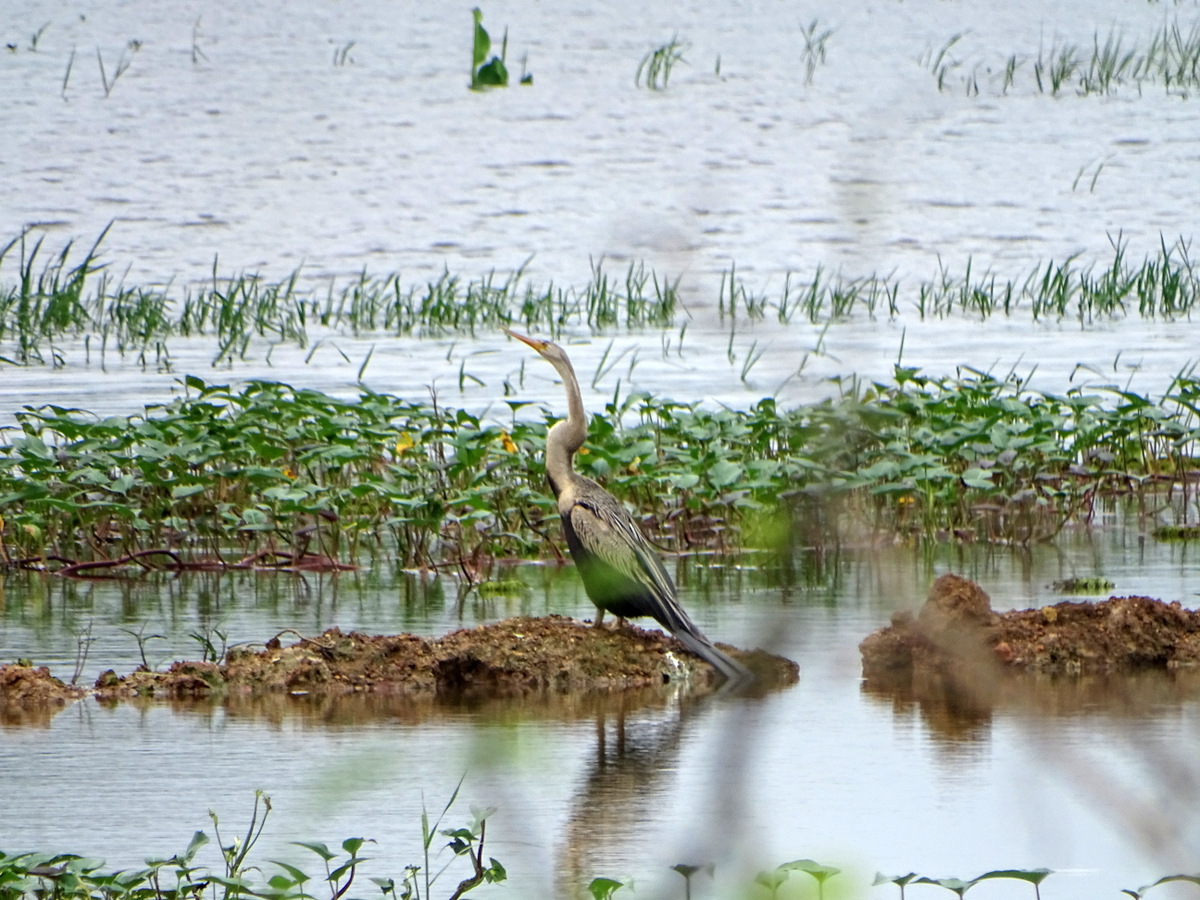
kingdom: Animalia
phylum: Chordata
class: Aves
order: Suliformes
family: Anhingidae
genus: Anhinga
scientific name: Anhinga melanogaster
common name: Oriental darter
